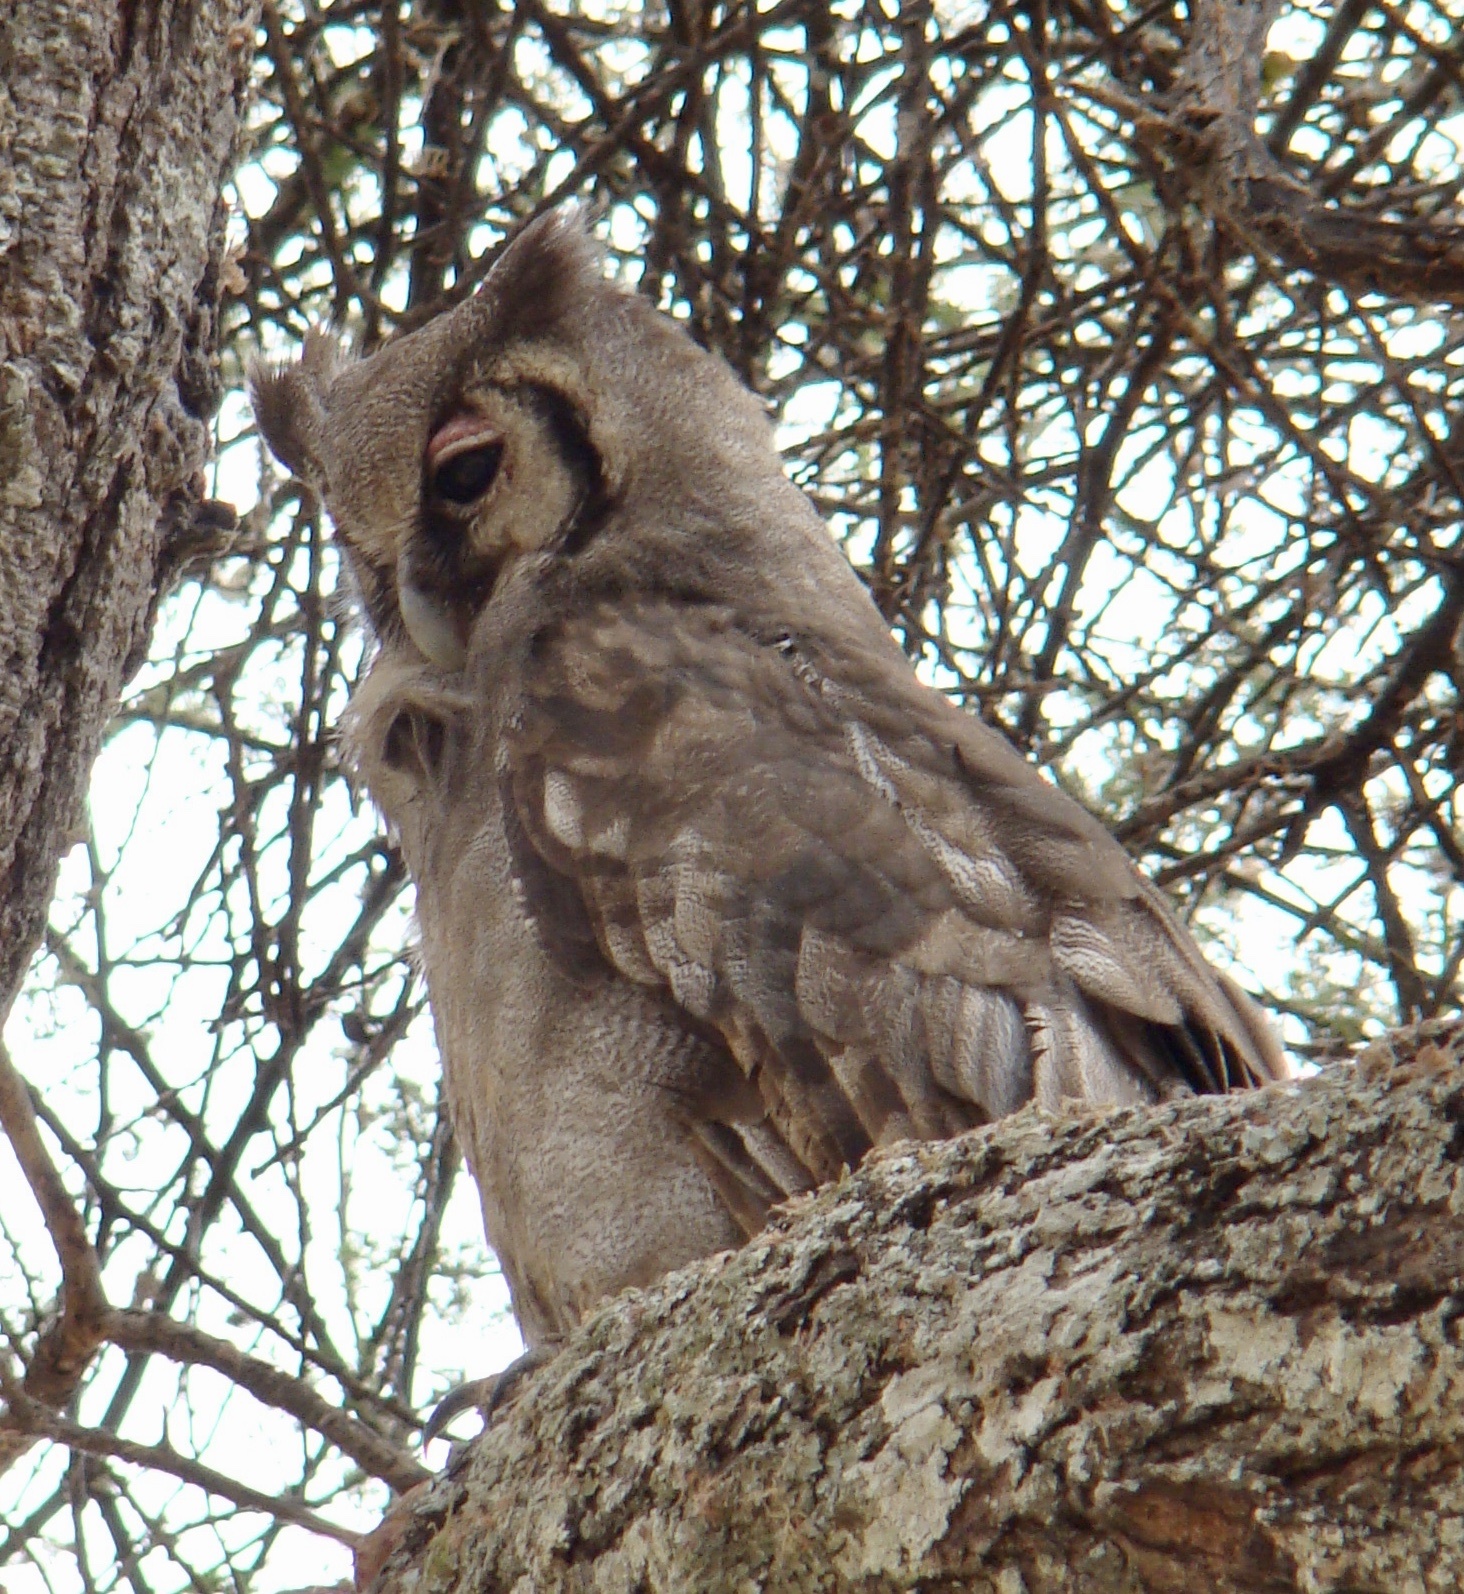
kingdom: Animalia
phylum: Chordata
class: Aves
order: Strigiformes
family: Strigidae
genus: Bubo
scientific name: Bubo lacteus
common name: Verreaux's eagle-owl
